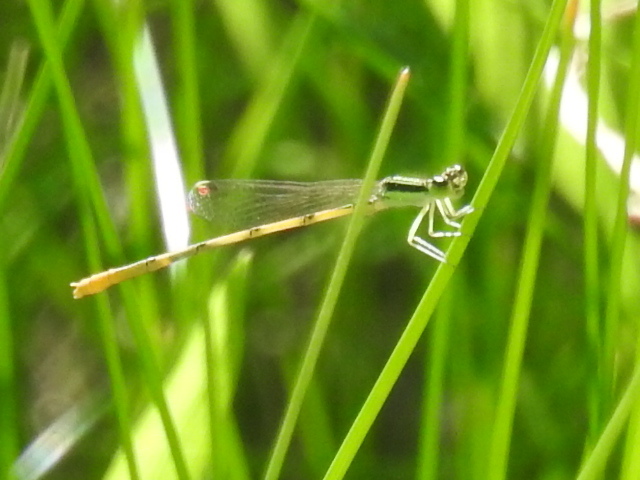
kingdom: Animalia
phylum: Arthropoda
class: Insecta
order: Odonata
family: Coenagrionidae
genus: Ischnura
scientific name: Ischnura hastata
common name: Citrine forktail
